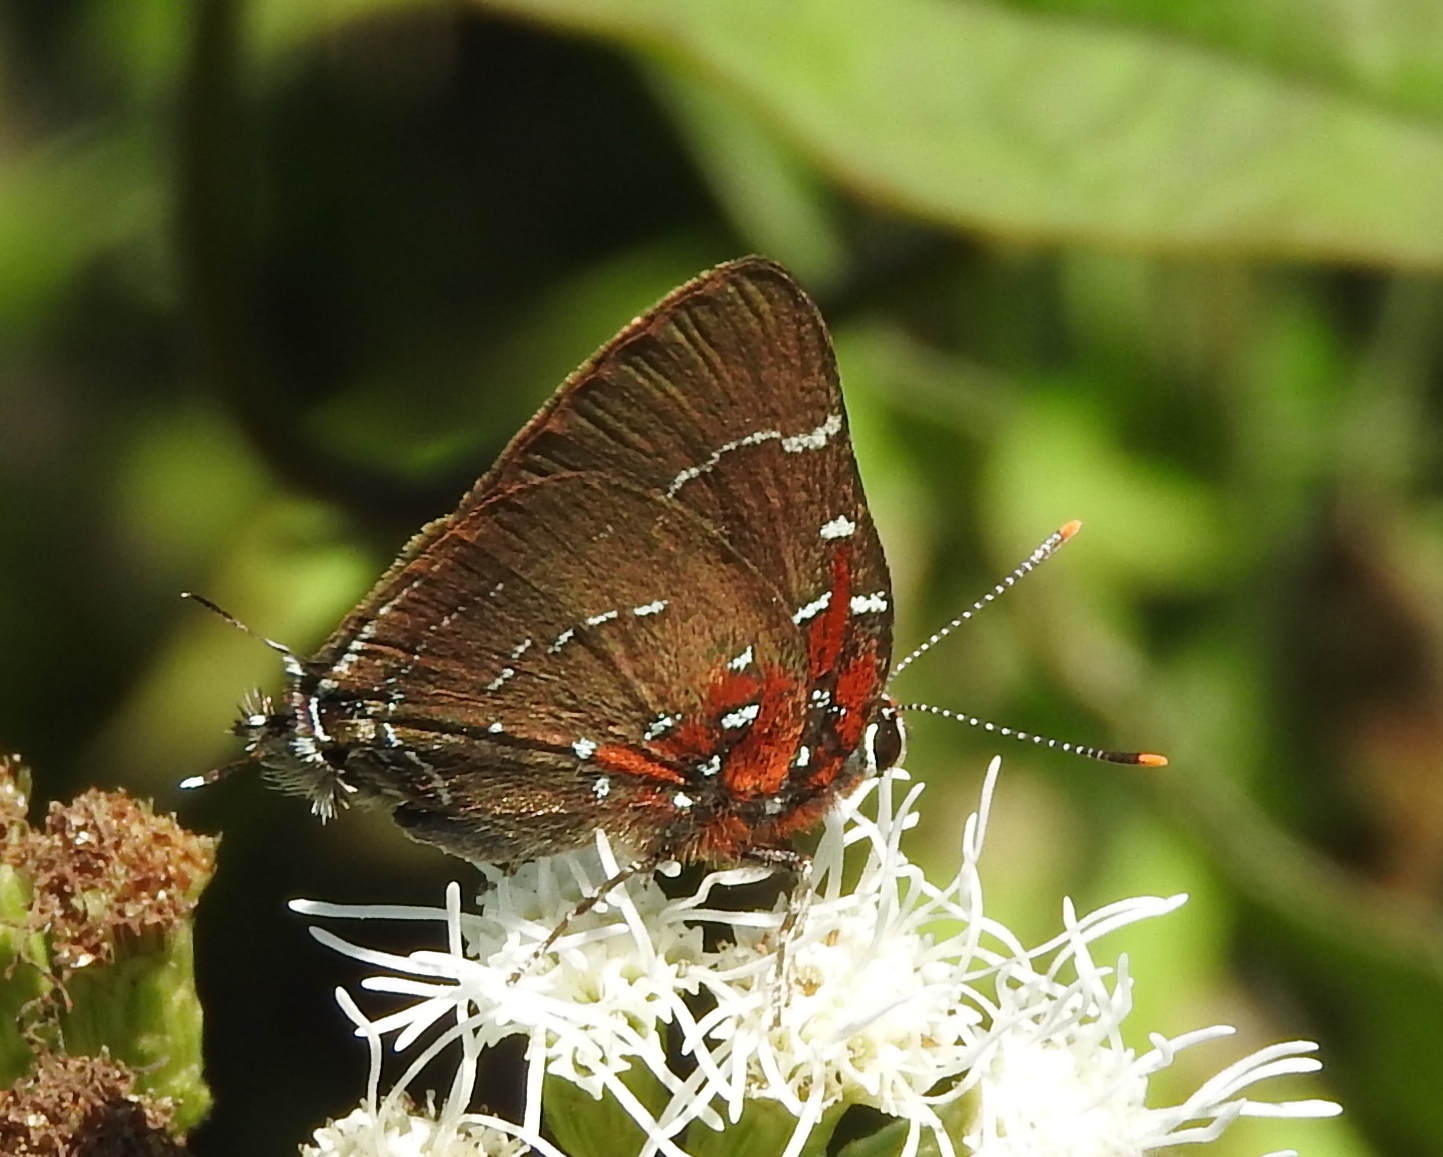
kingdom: Animalia
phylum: Arthropoda
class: Insecta
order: Lepidoptera
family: Lycaenidae
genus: Atlides
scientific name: Atlides Brangas neora
